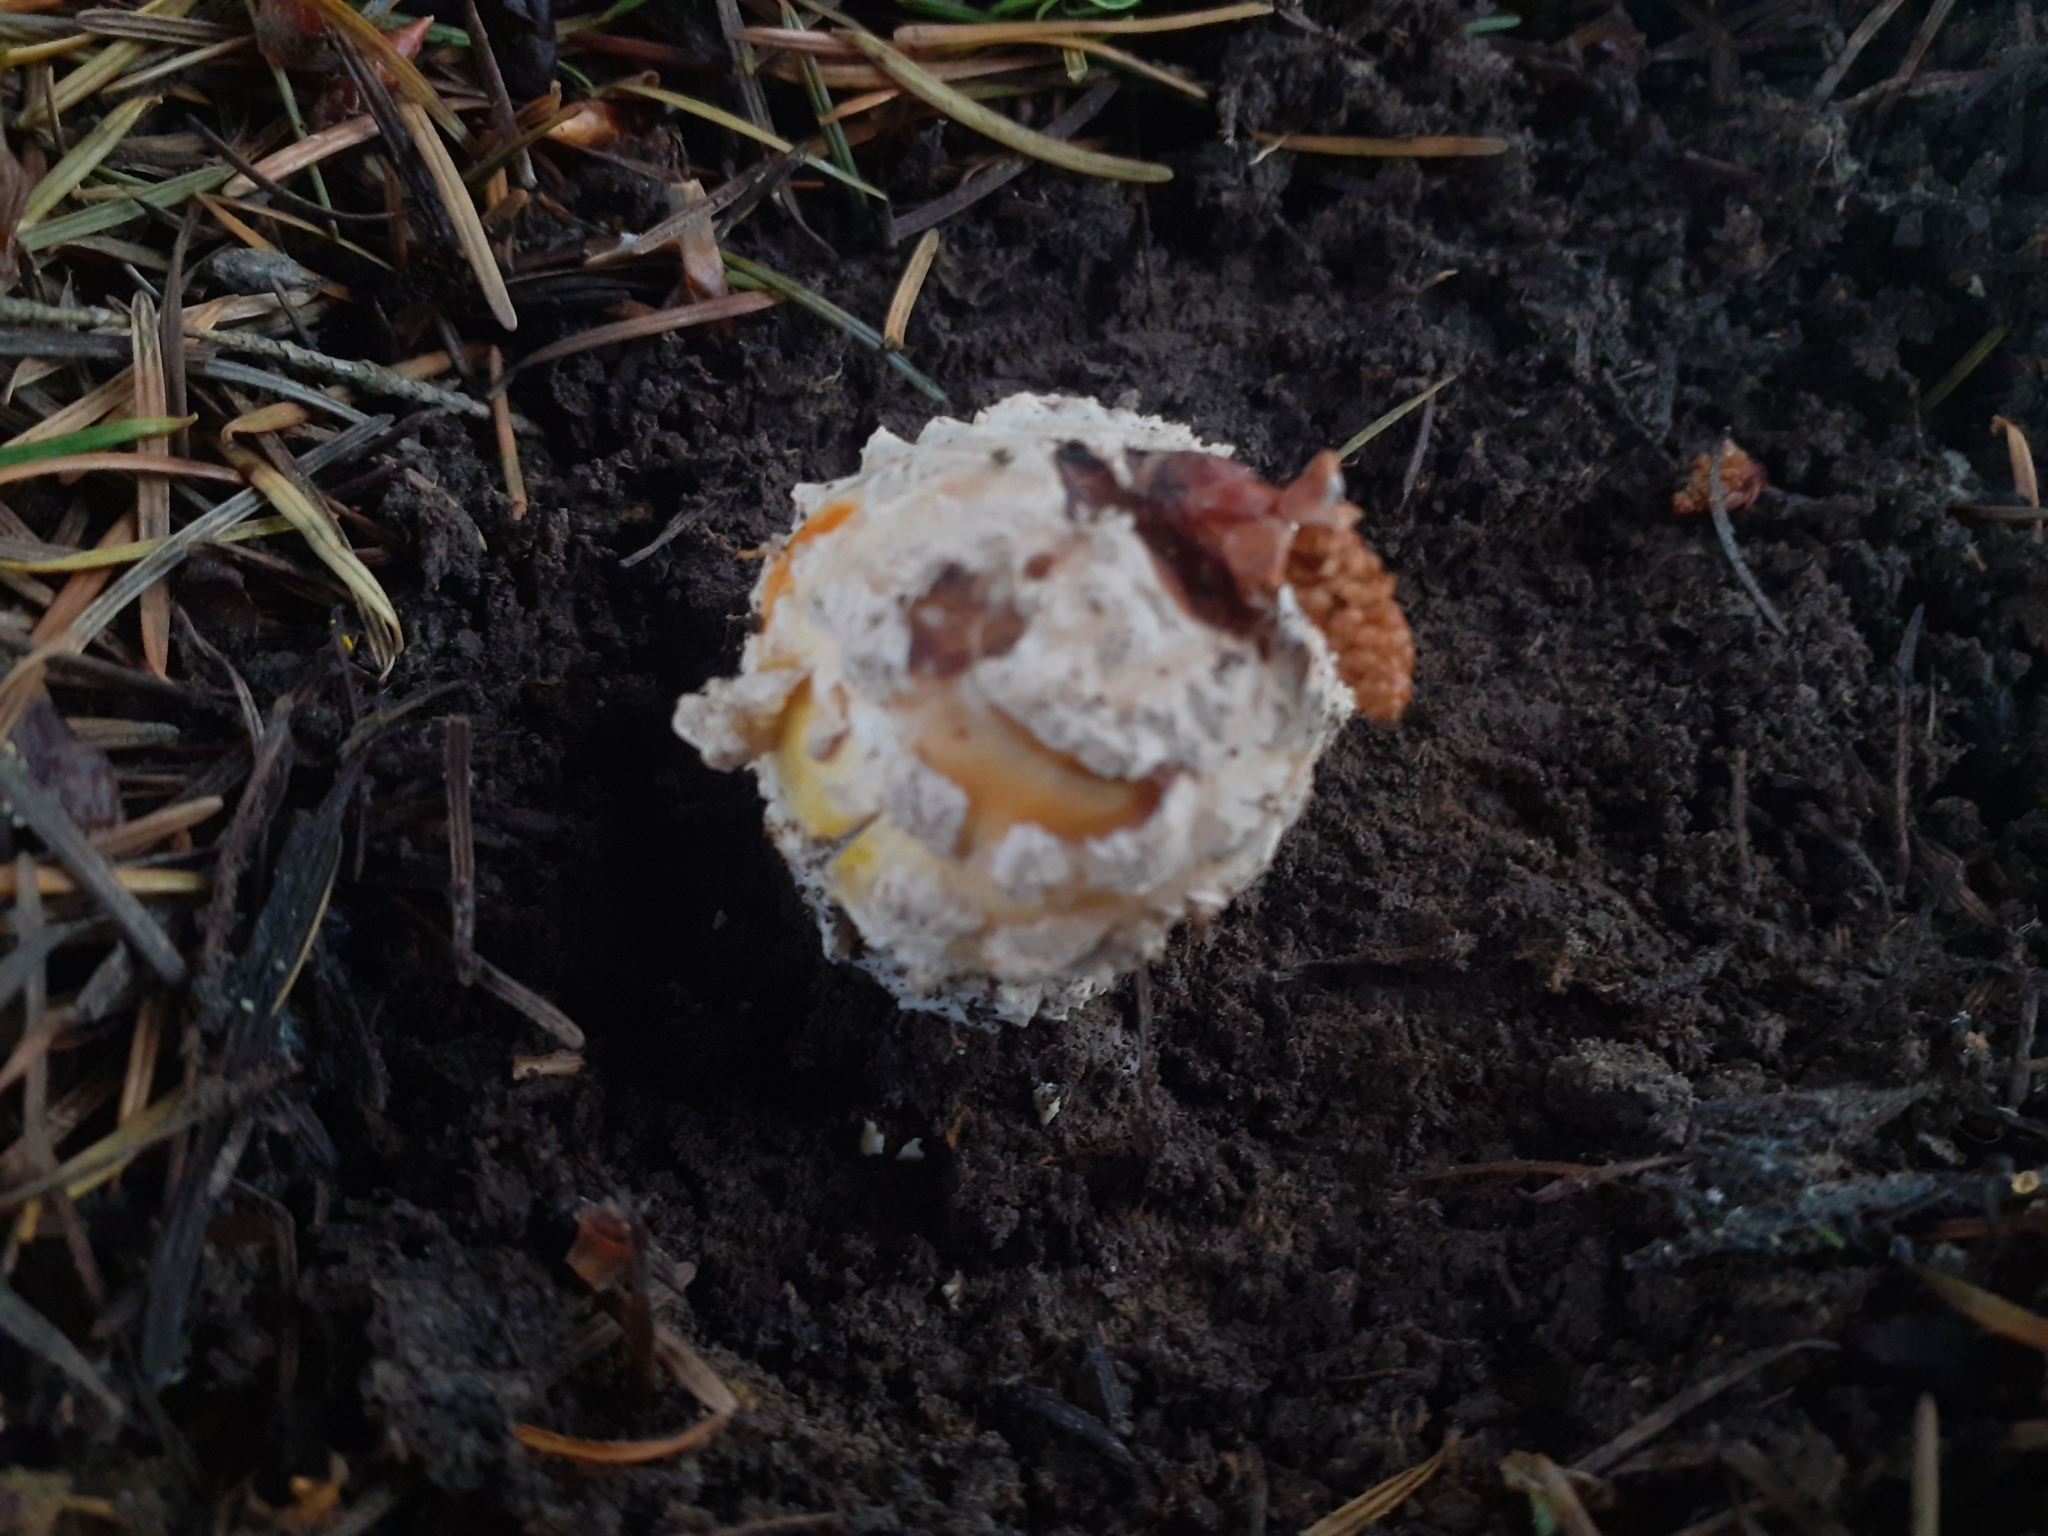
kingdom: Fungi
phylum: Basidiomycota
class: Agaricomycetes
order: Agaricales
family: Amanitaceae
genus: Amanita
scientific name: Amanita muscaria
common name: Fly agaric
